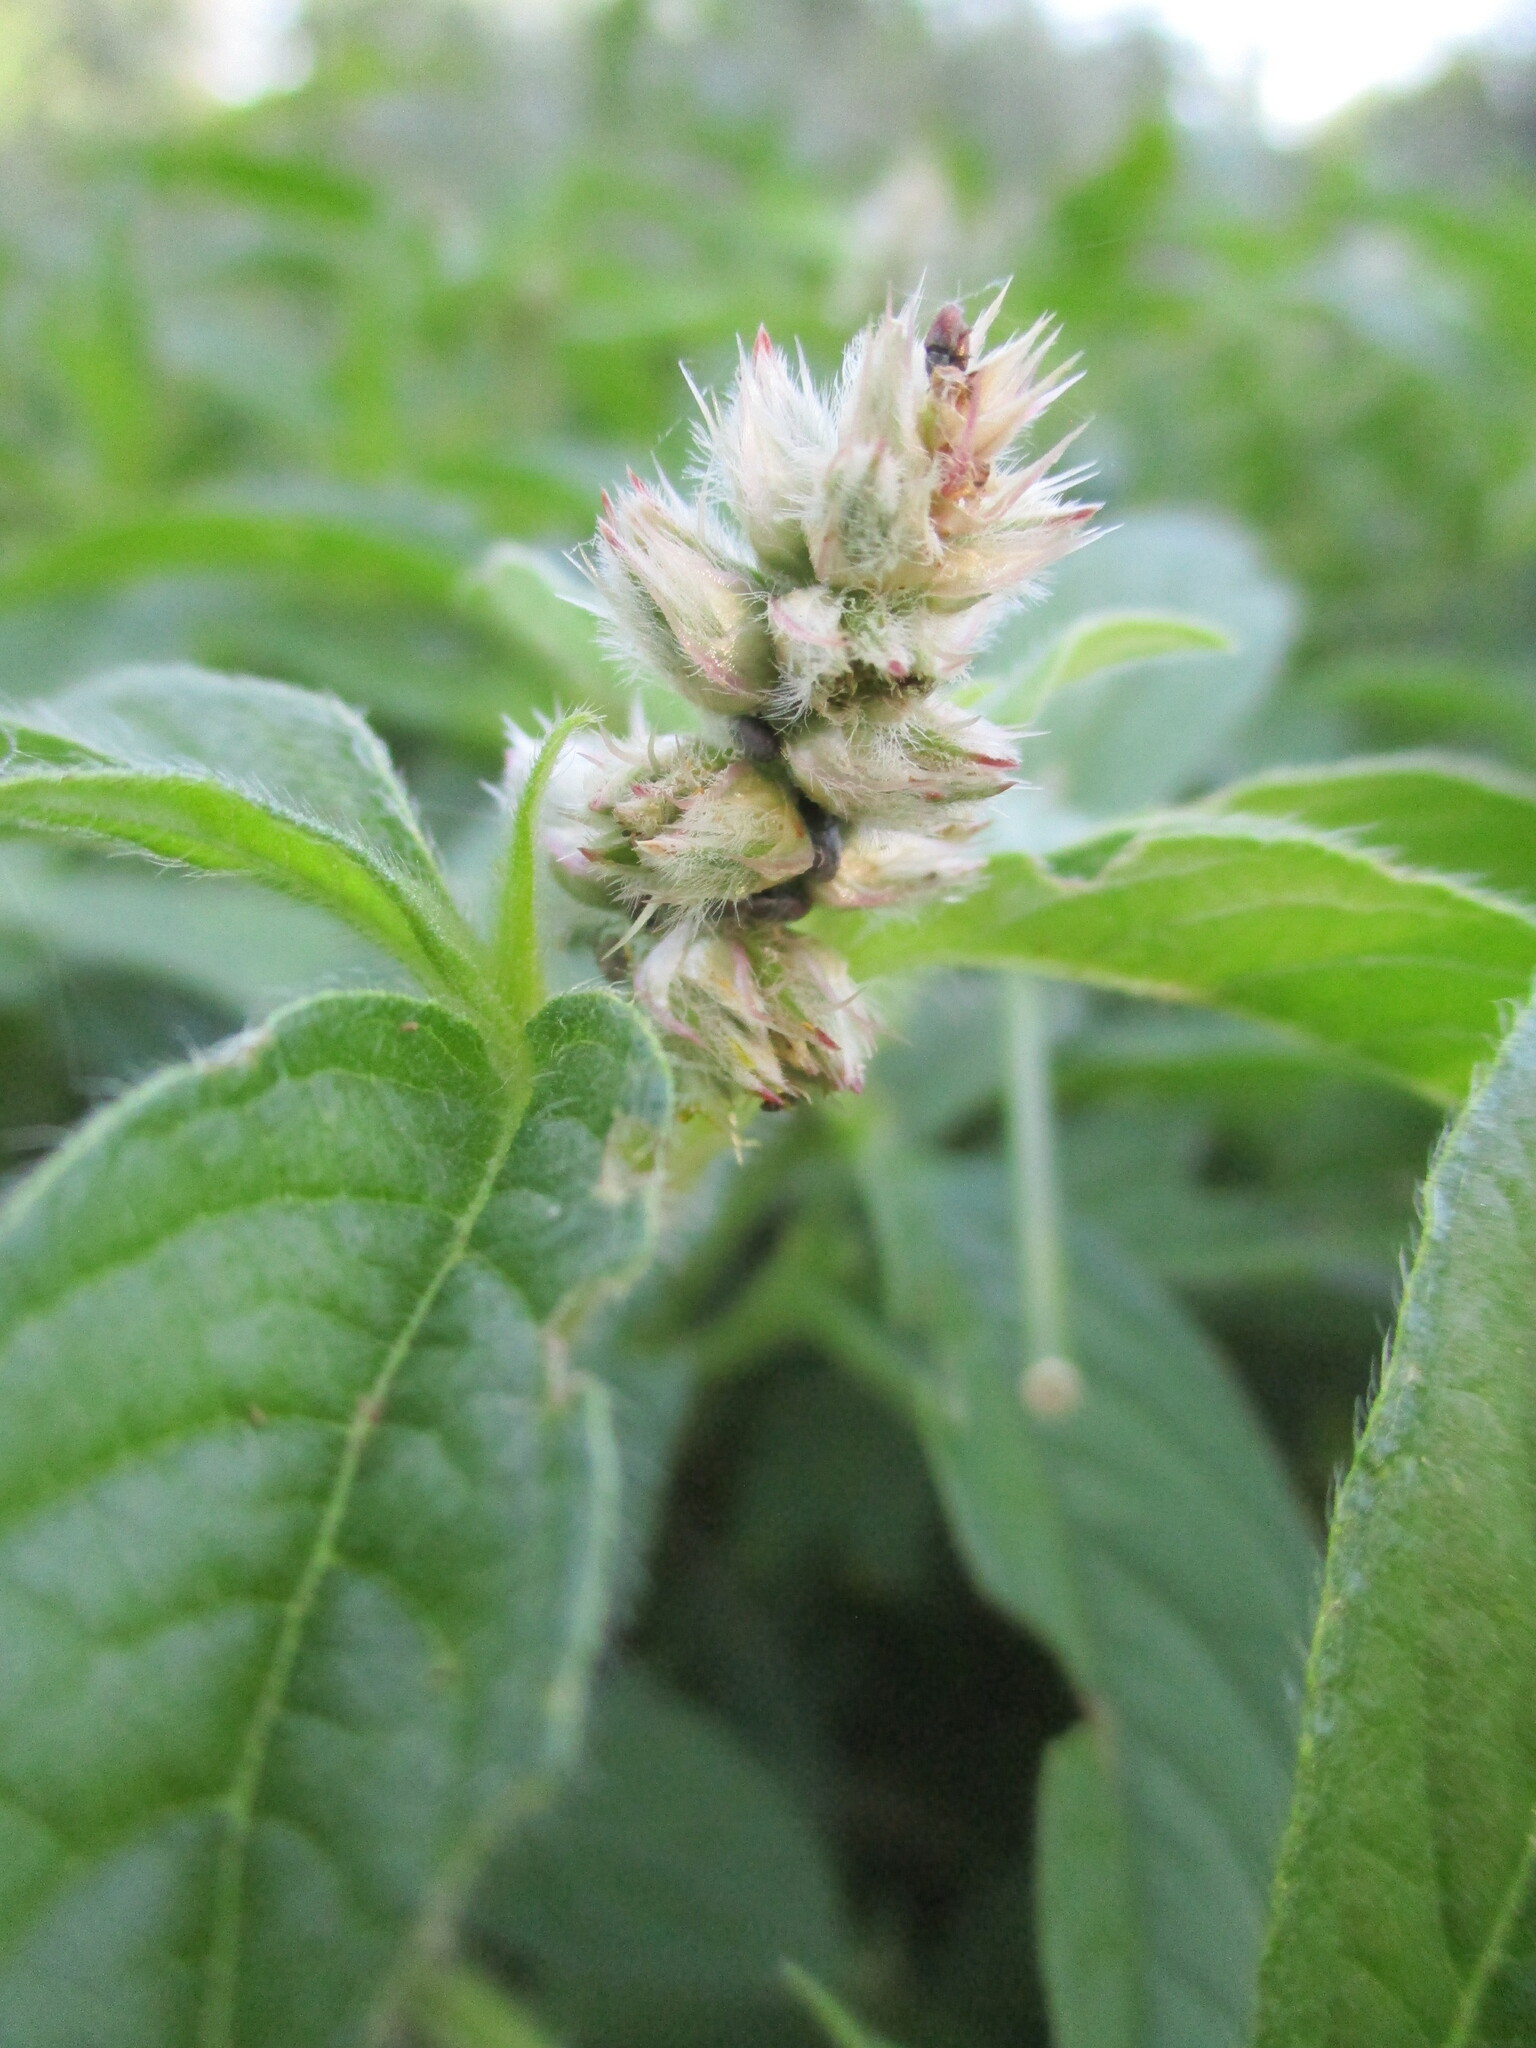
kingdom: Plantae
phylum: Tracheophyta
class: Magnoliopsida
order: Caryophyllales
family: Amaranthaceae
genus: Cyathula
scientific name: Cyathula orthacantha
